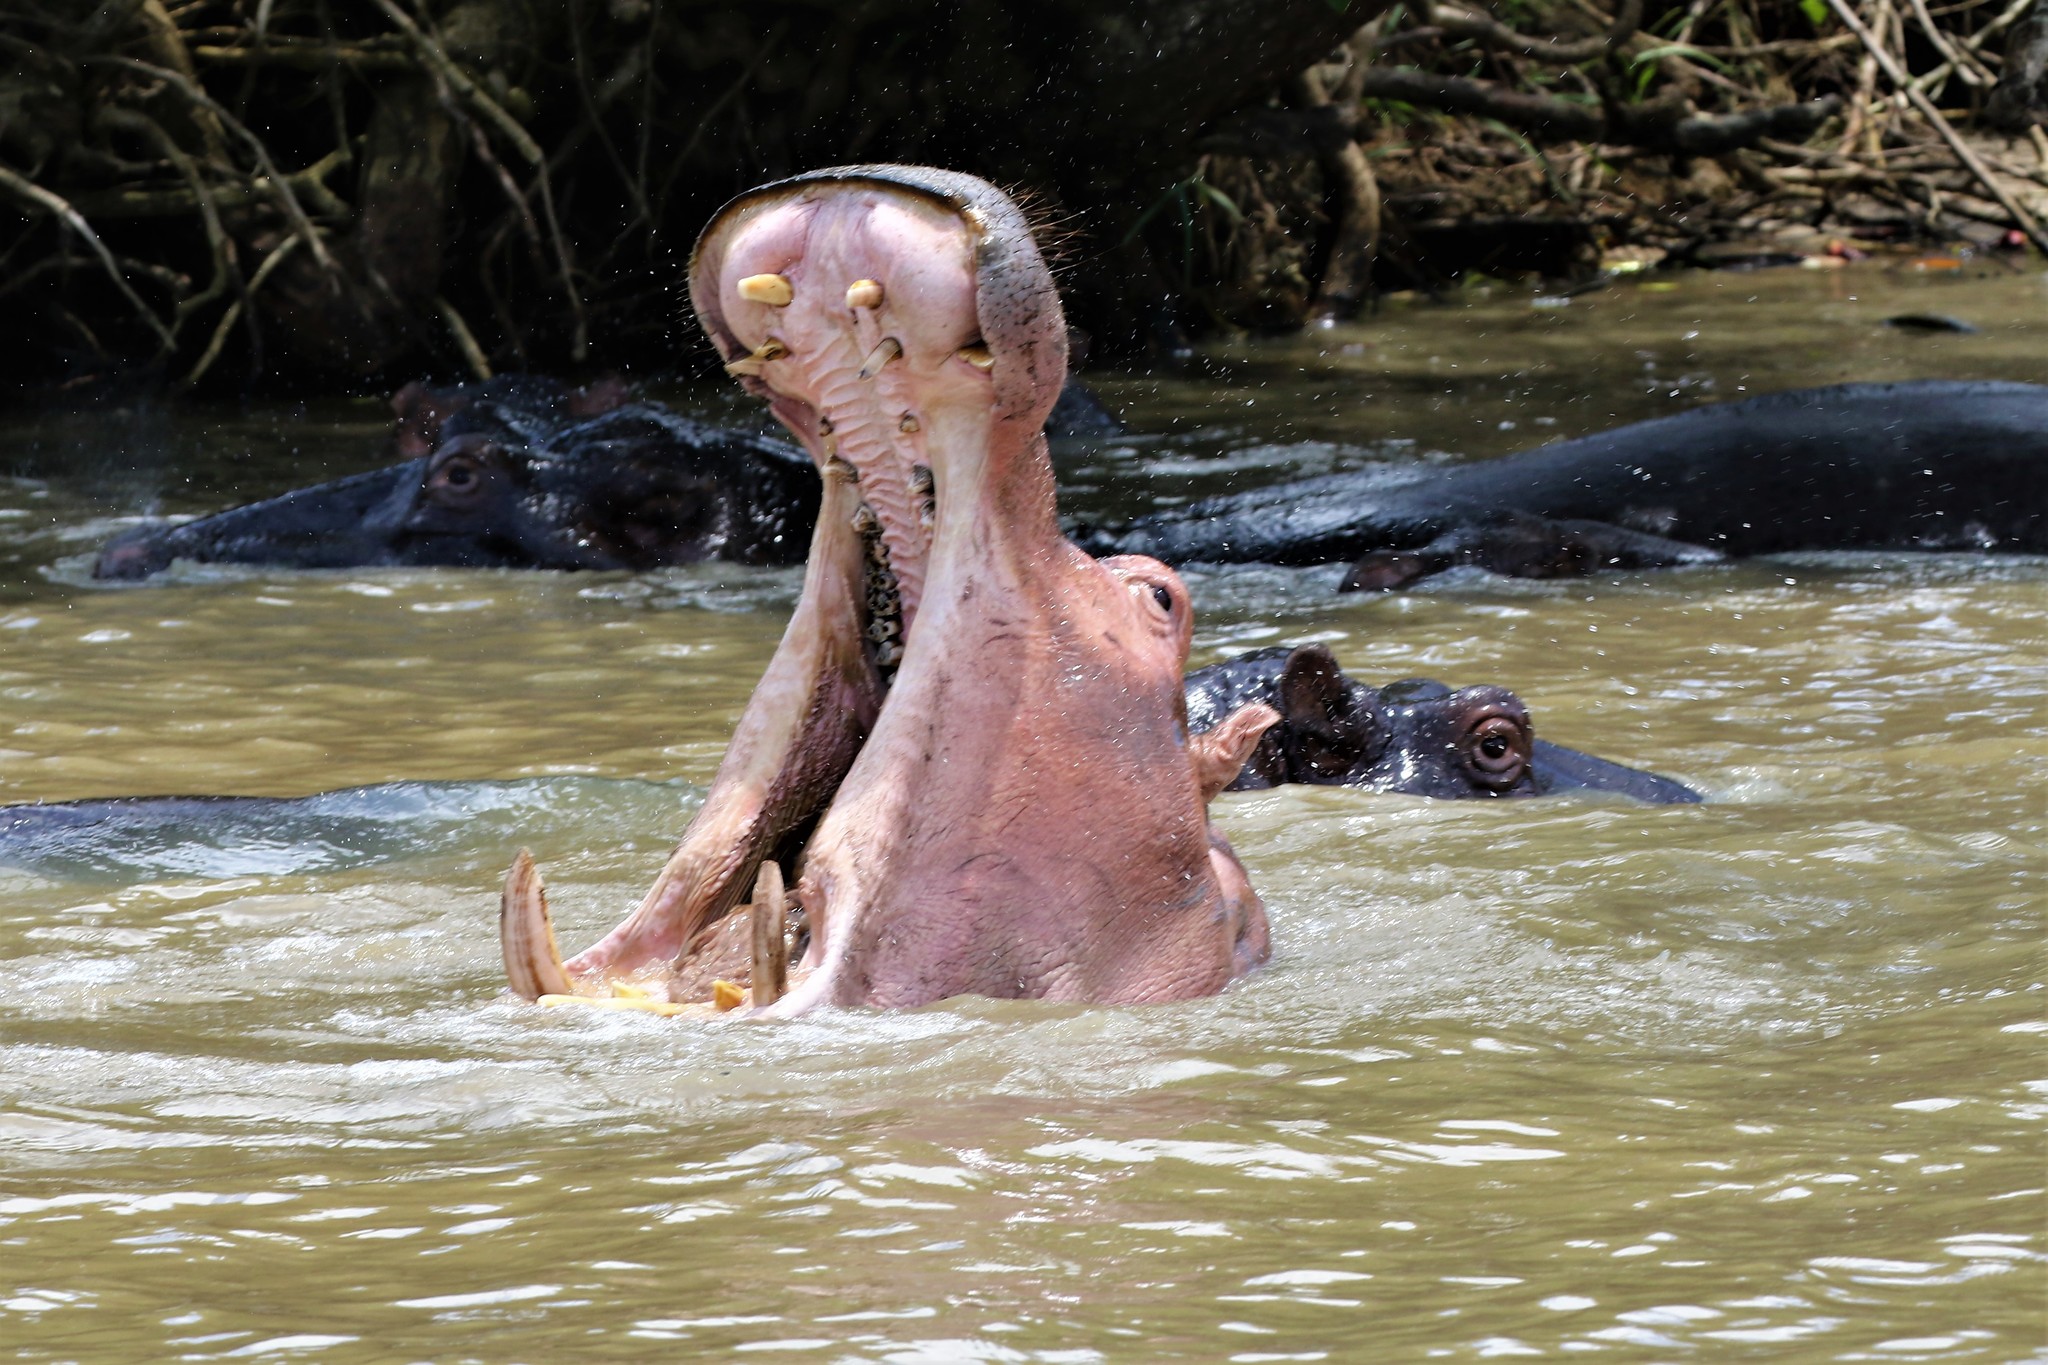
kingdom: Animalia
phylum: Chordata
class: Mammalia
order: Artiodactyla
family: Hippopotamidae
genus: Hippopotamus
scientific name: Hippopotamus amphibius
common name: Common hippopotamus
